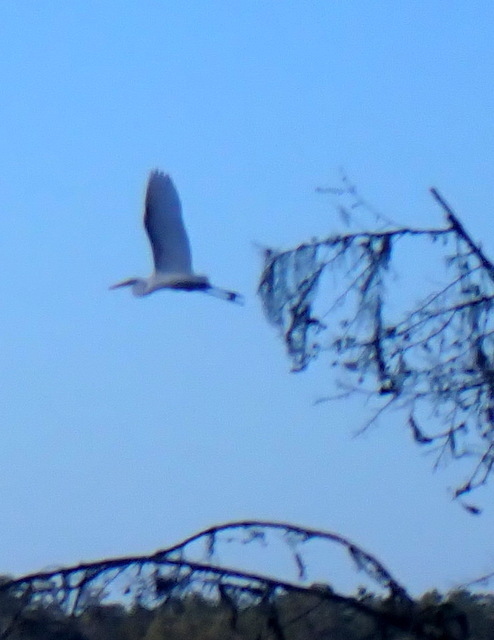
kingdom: Animalia
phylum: Chordata
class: Aves
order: Pelecaniformes
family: Ardeidae
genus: Ardea
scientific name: Ardea alba
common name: Great egret
